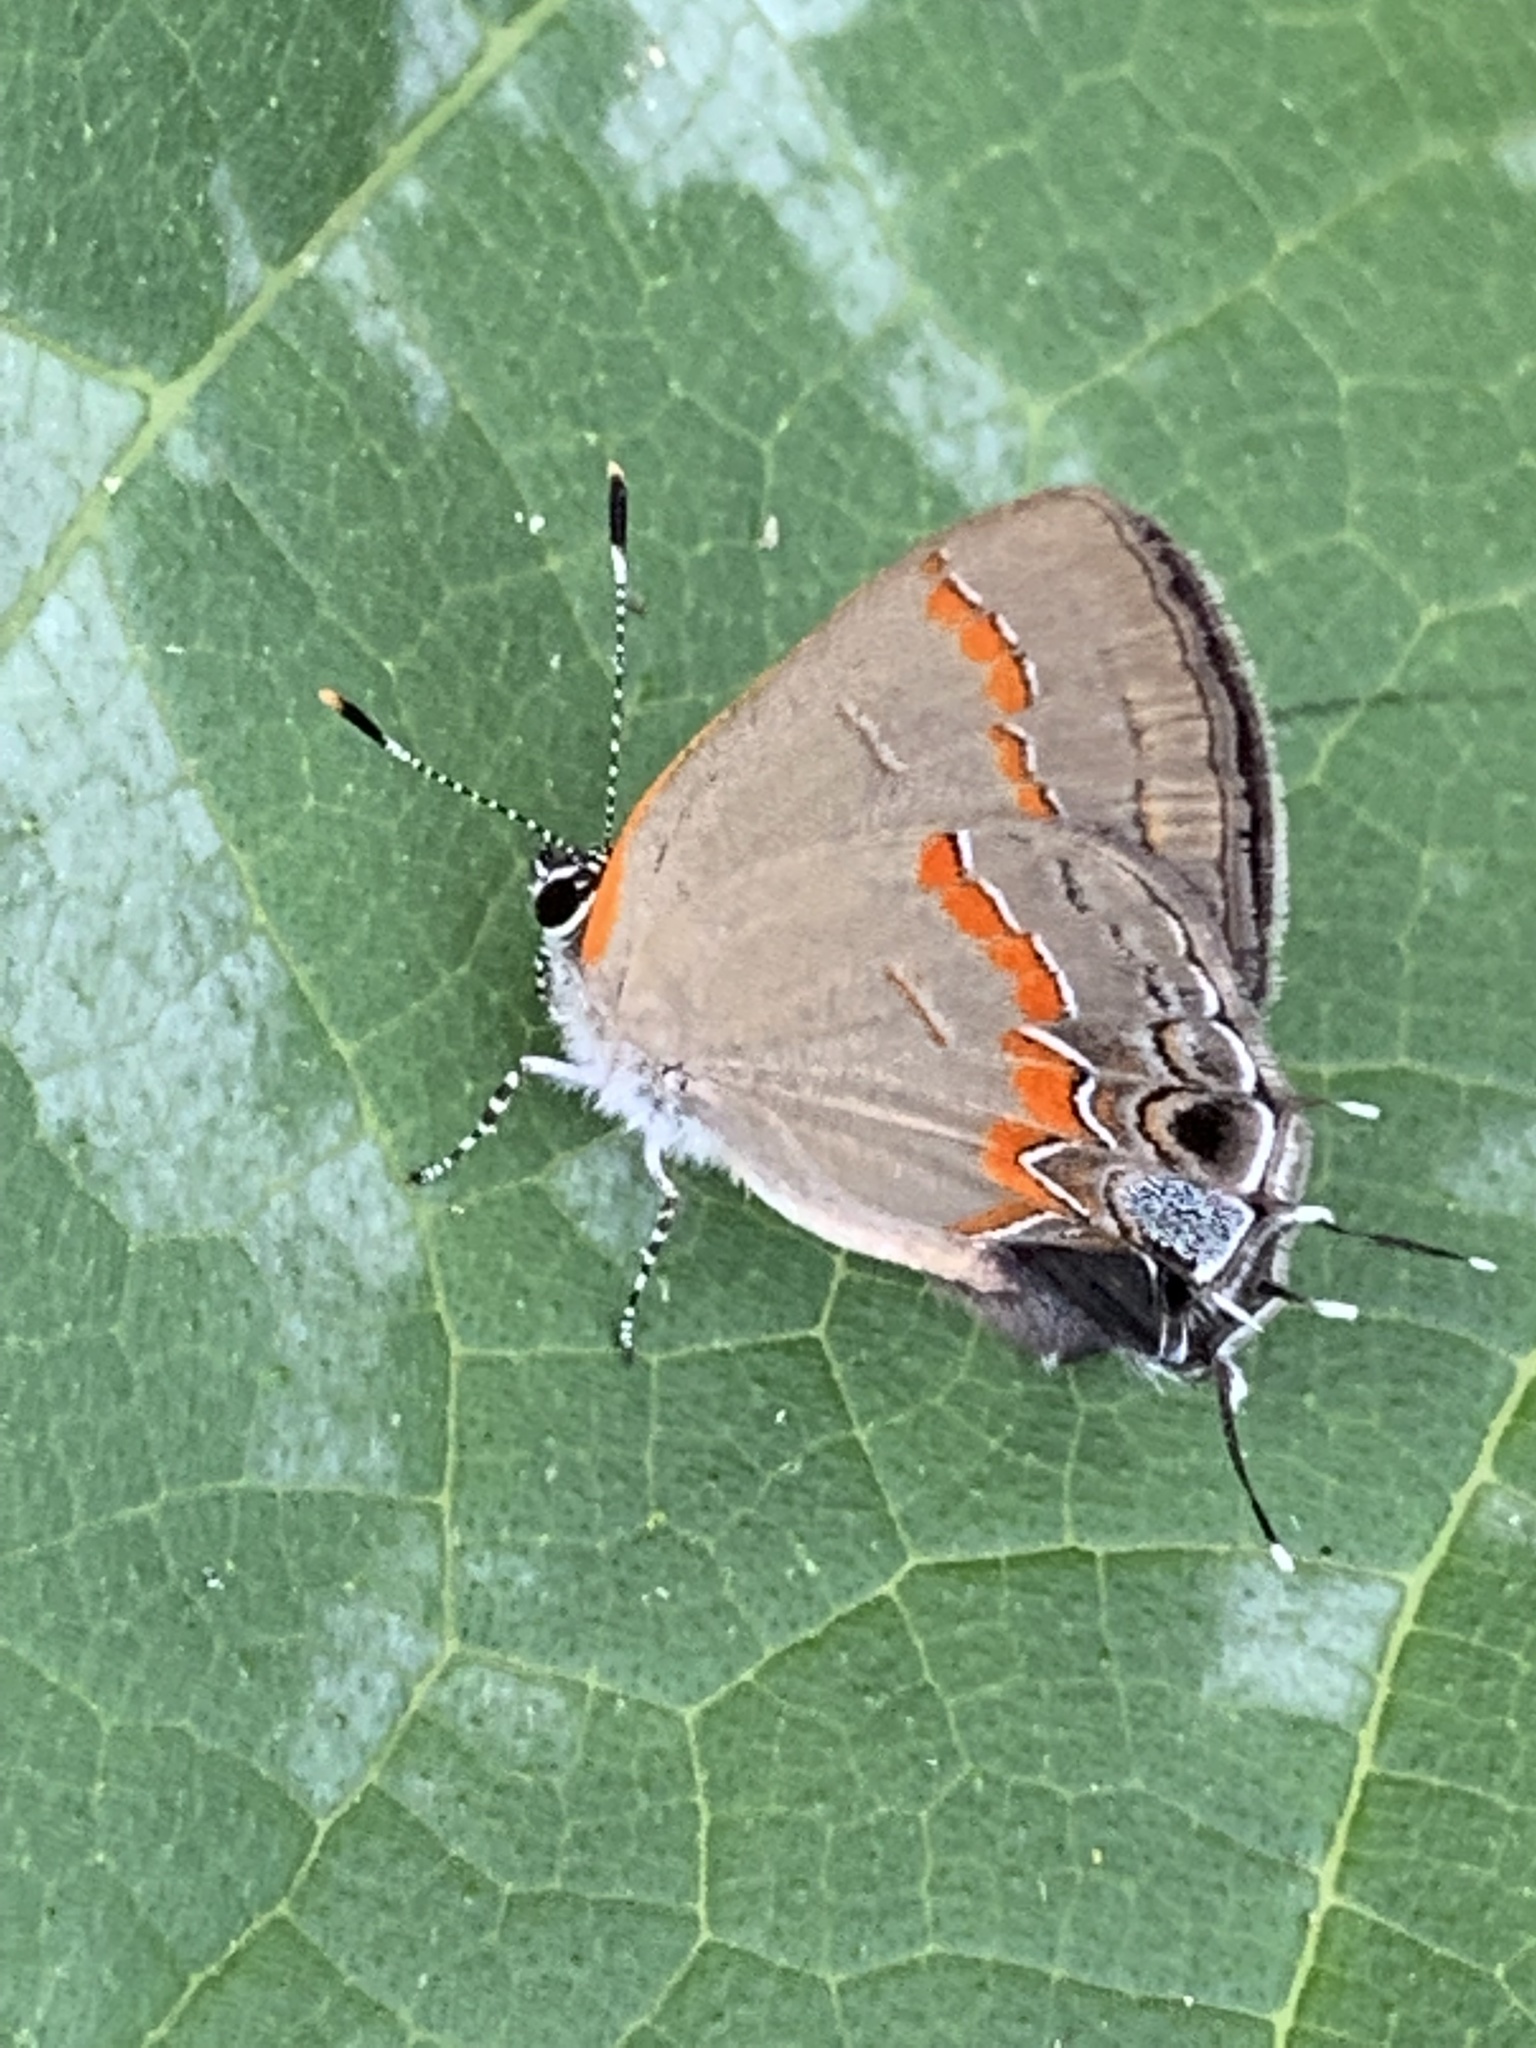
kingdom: Animalia
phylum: Arthropoda
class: Insecta
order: Lepidoptera
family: Lycaenidae
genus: Calycopis
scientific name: Calycopis cecrops
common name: Red-banded hairstreak
